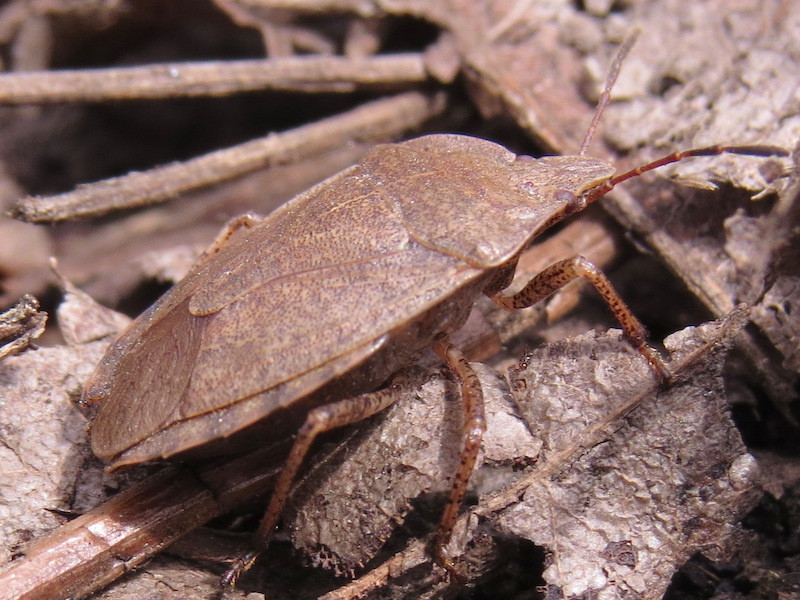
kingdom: Animalia
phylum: Arthropoda
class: Insecta
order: Hemiptera
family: Pentatomidae
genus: Menecles
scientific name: Menecles insertus
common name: Elf shoe stink bug
